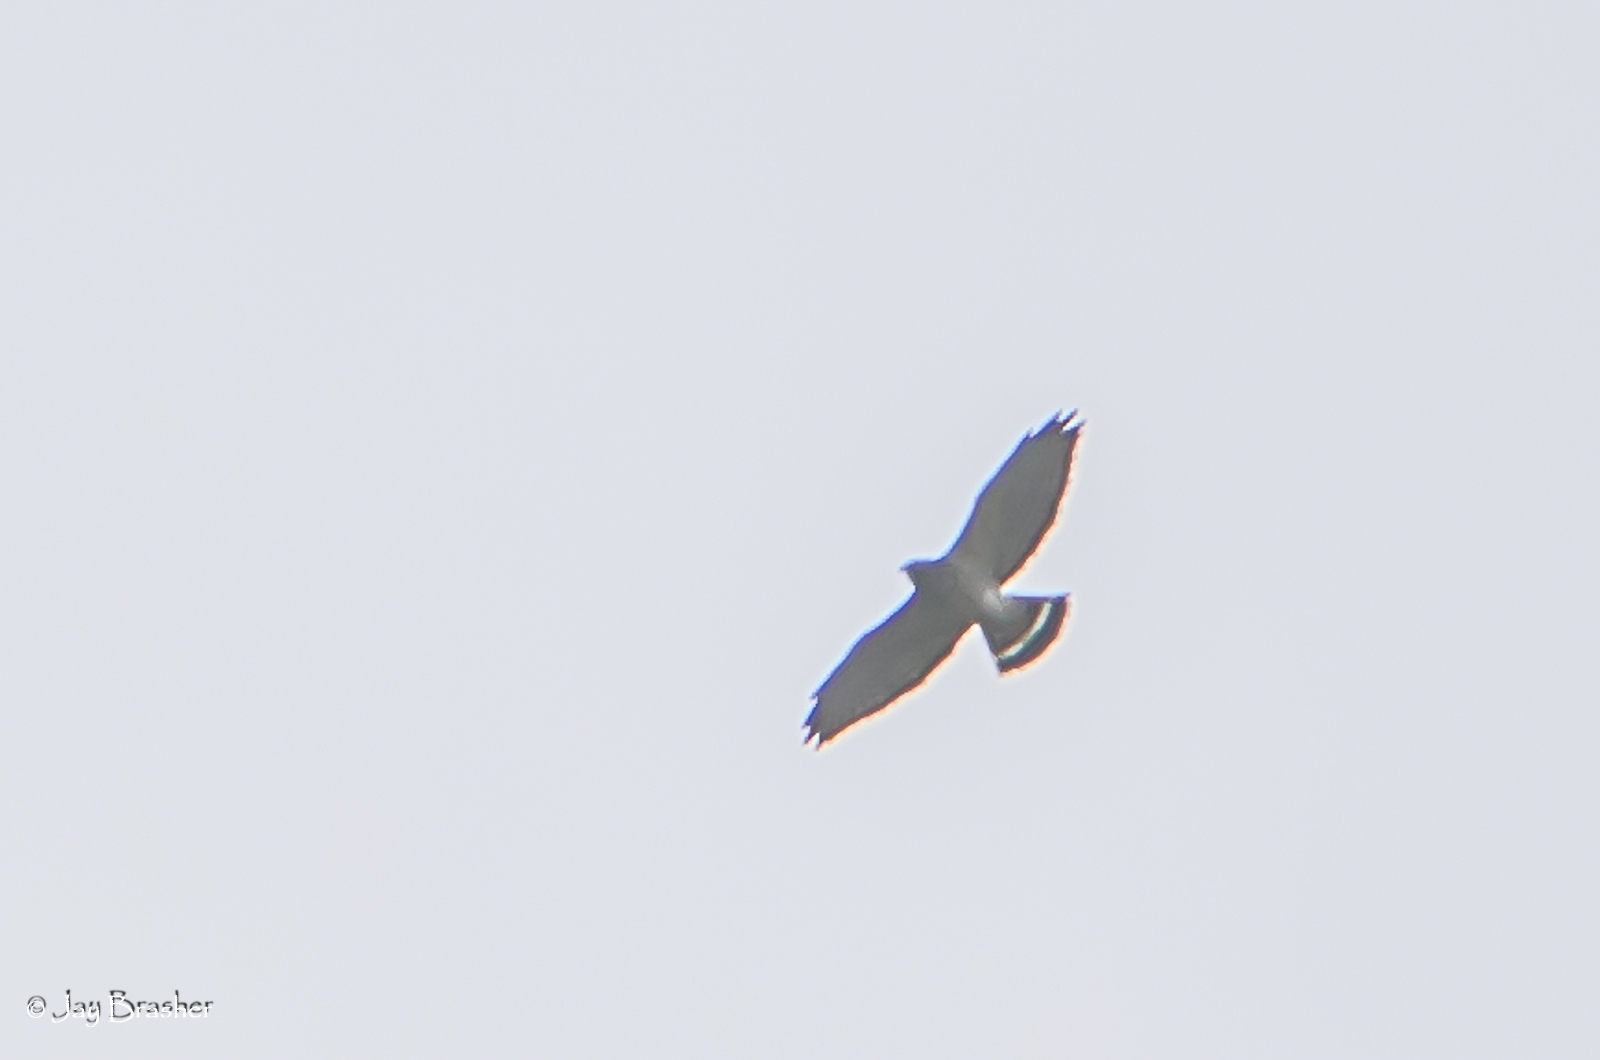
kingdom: Animalia
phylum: Chordata
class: Aves
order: Accipitriformes
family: Accipitridae
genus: Buteo
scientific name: Buteo platypterus
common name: Broad-winged hawk
